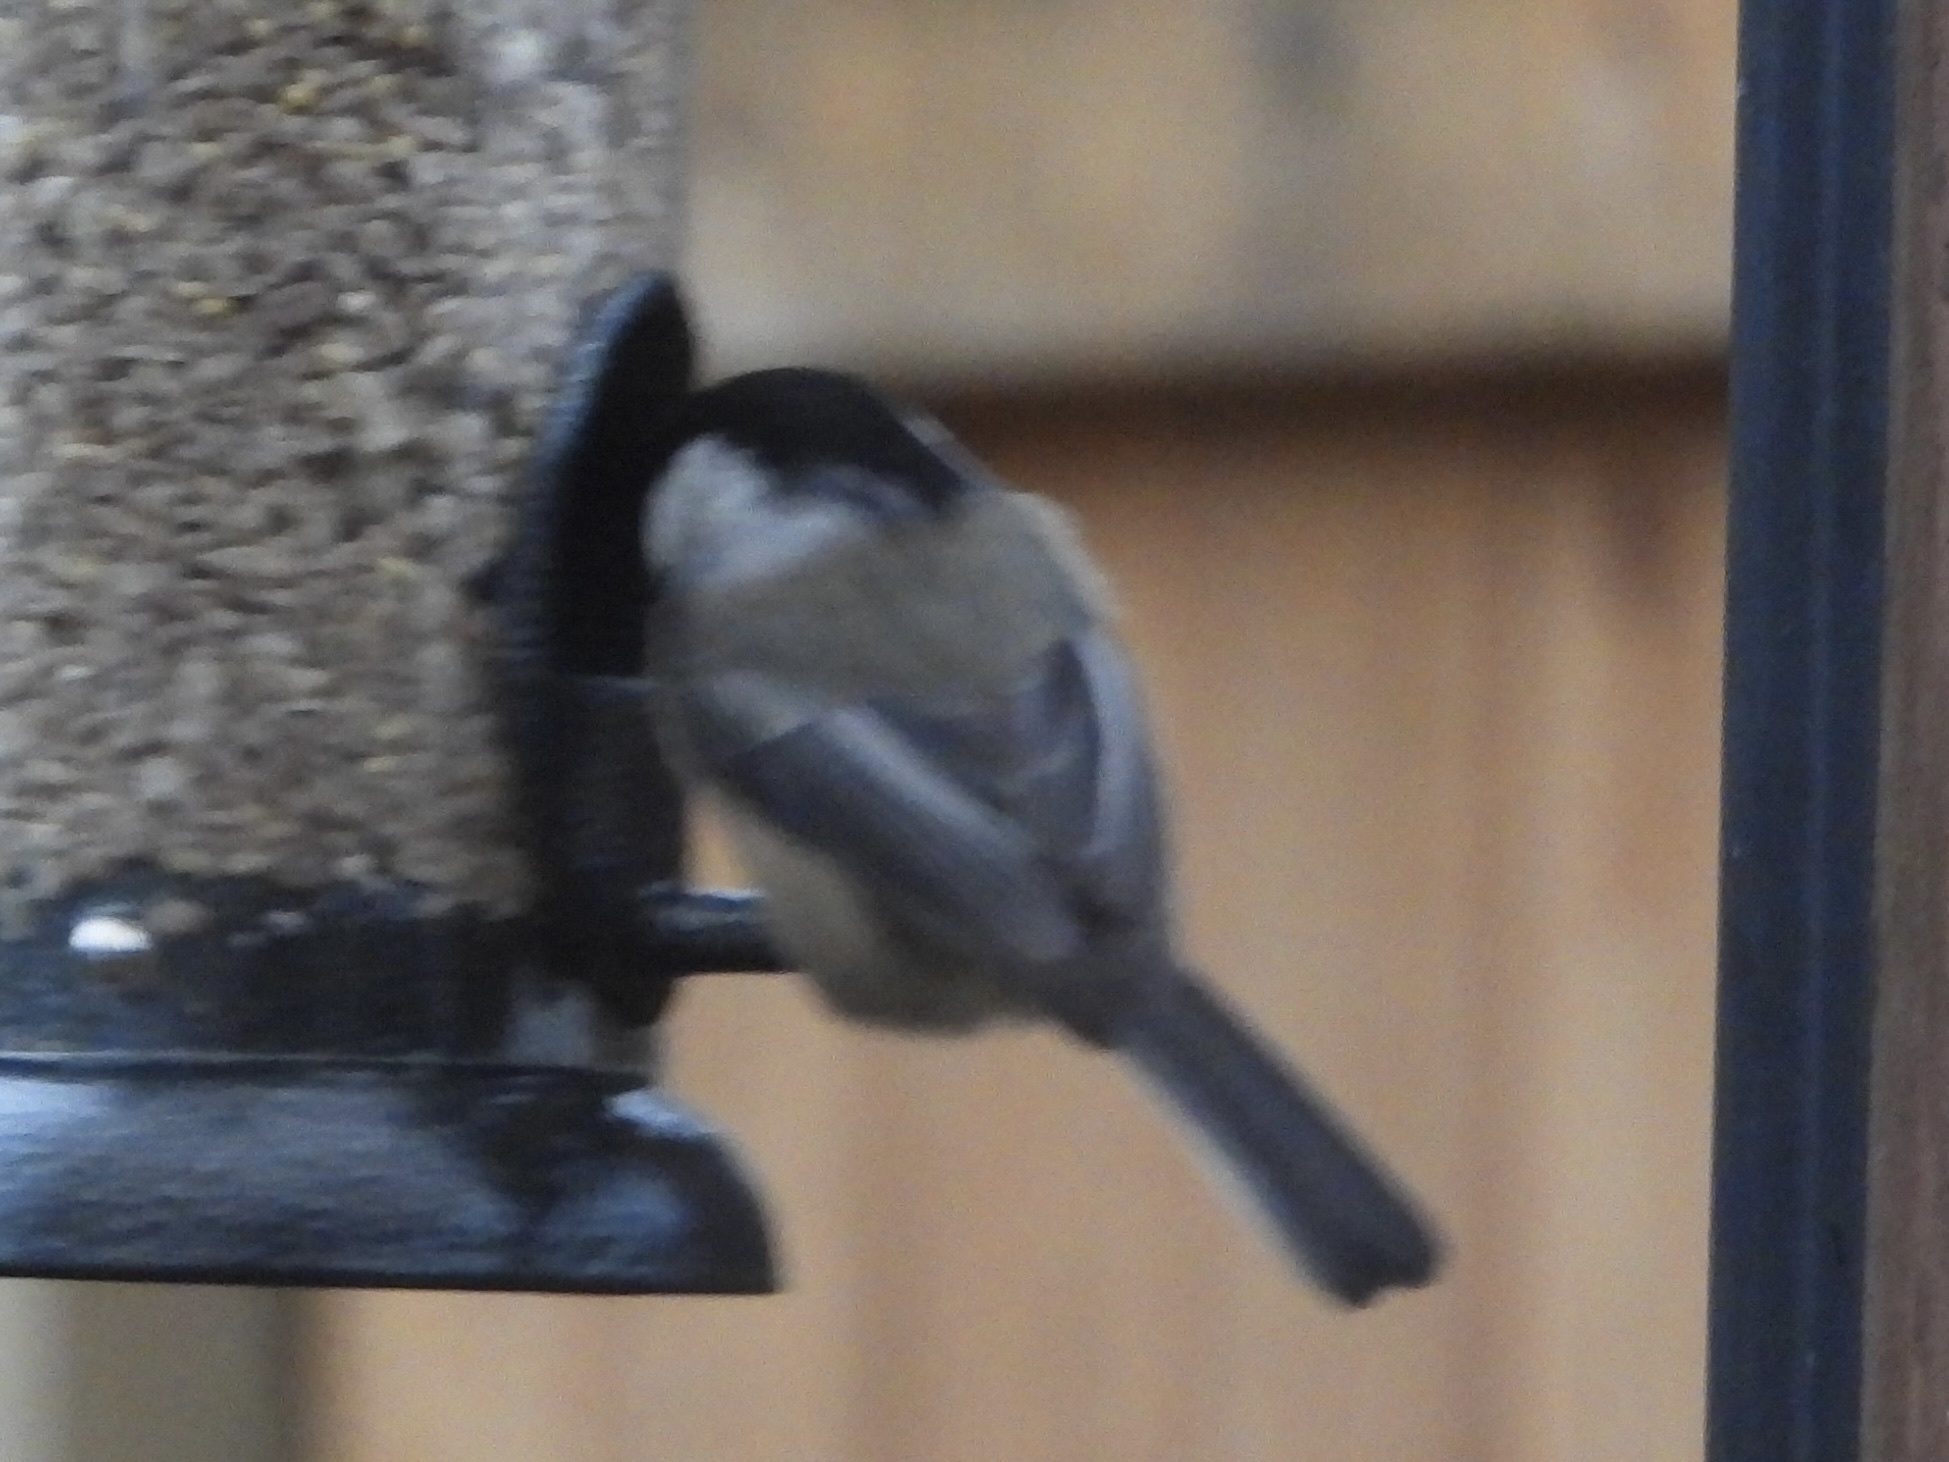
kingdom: Animalia
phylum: Chordata
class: Aves
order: Passeriformes
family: Paridae
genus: Poecile
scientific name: Poecile atricapillus
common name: Black-capped chickadee
